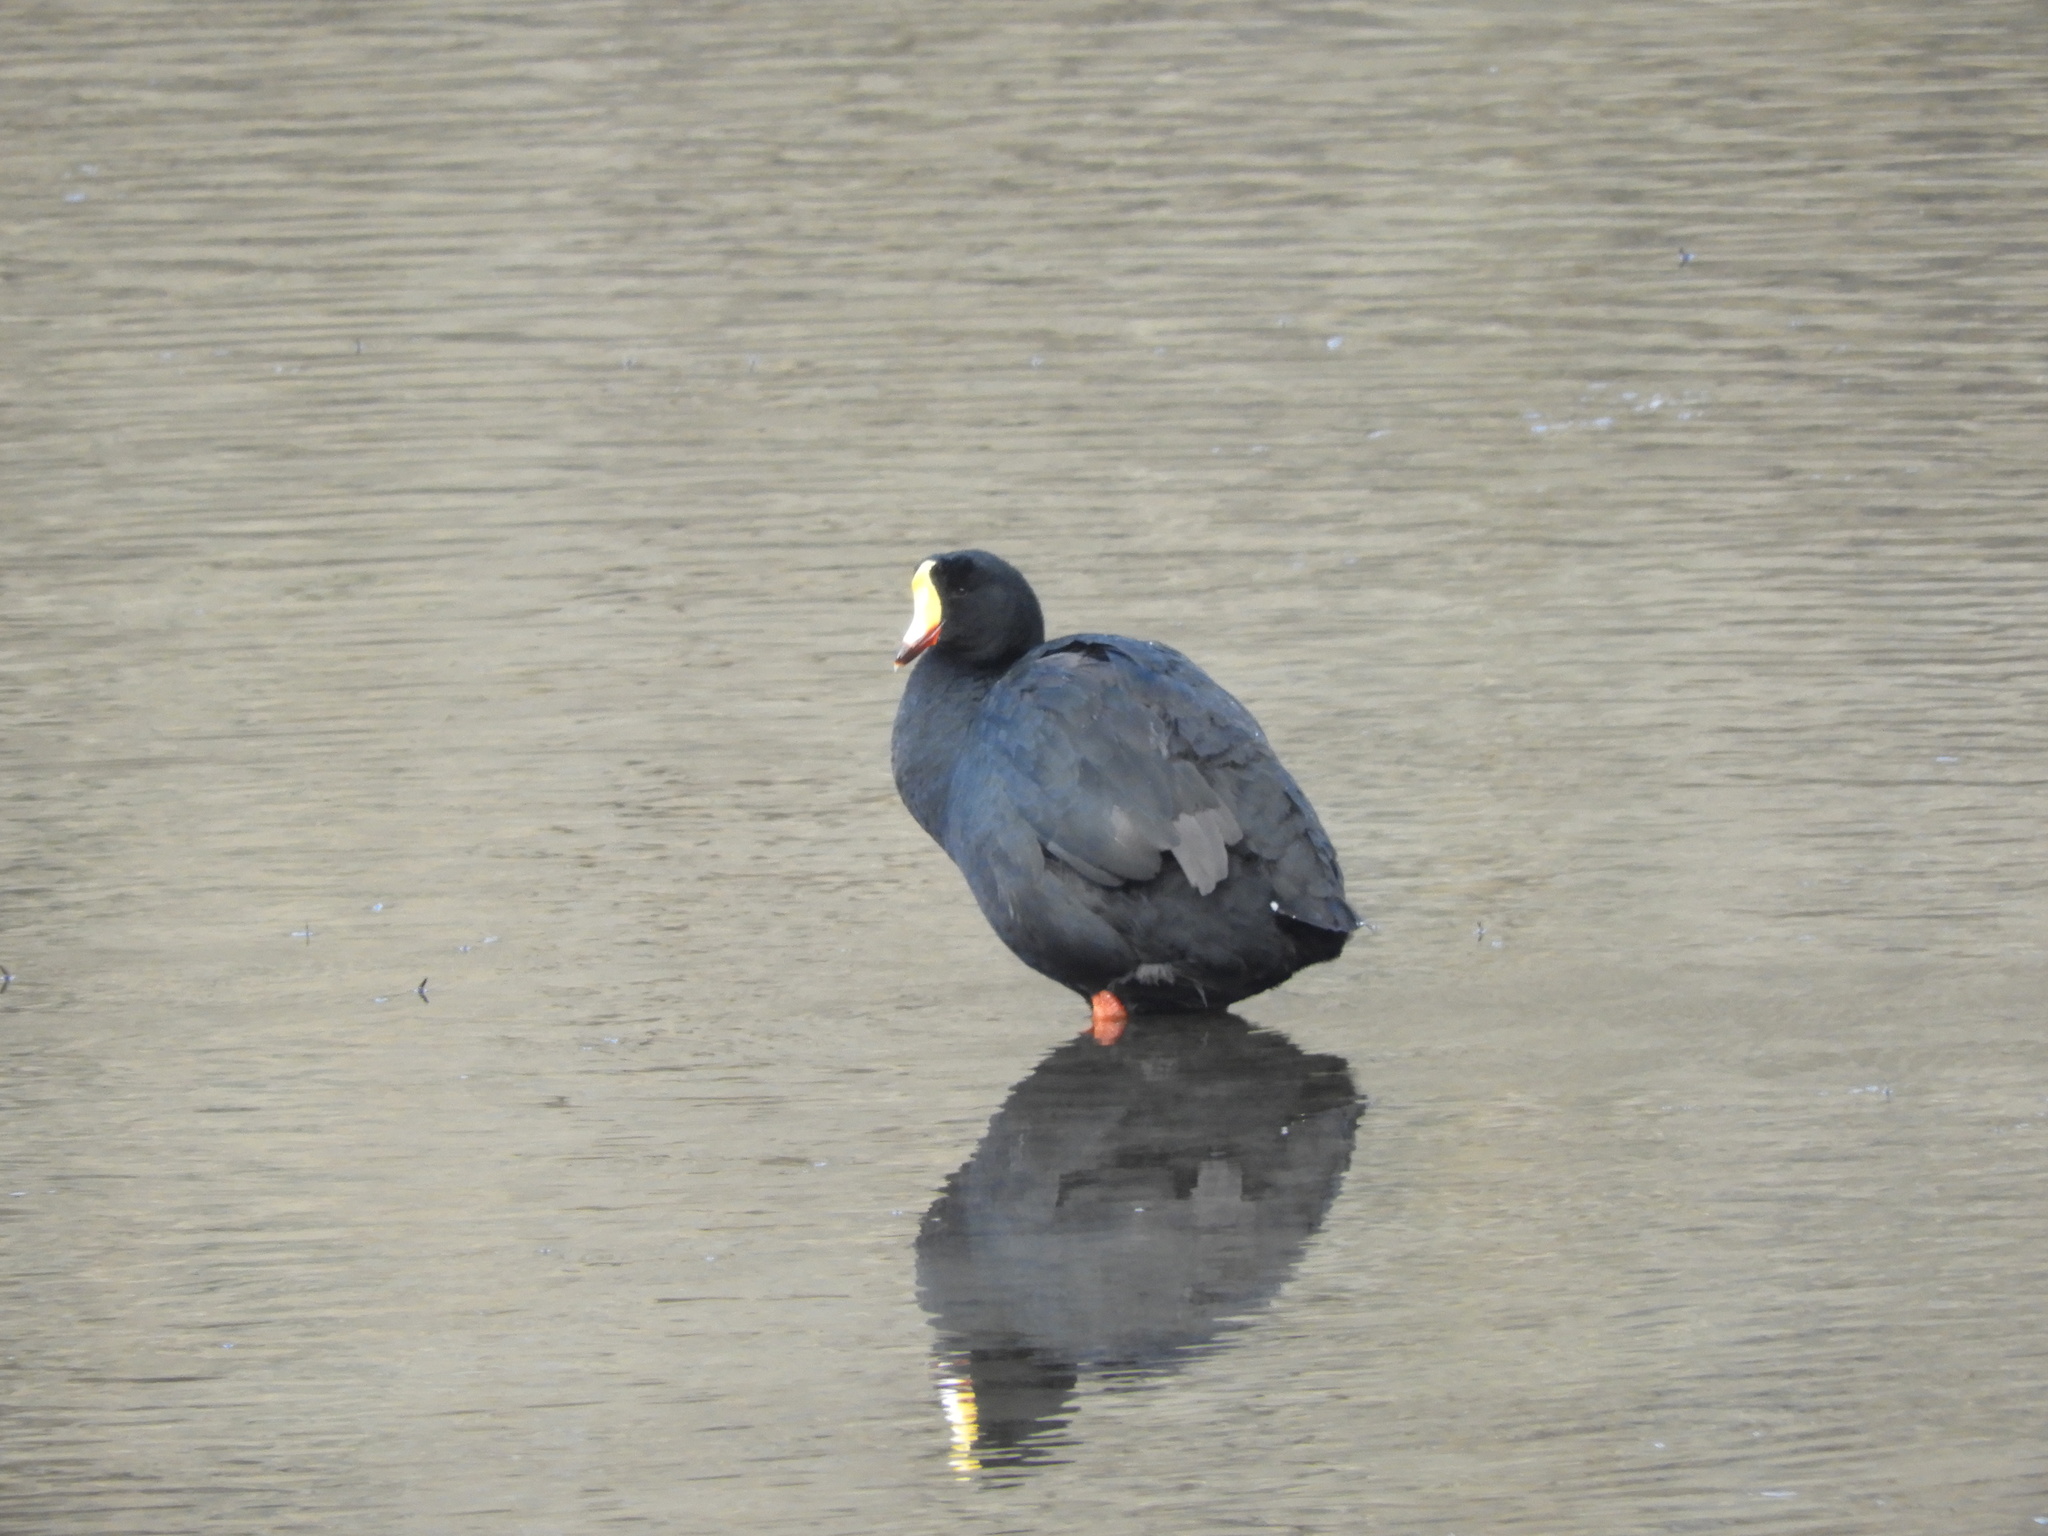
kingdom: Animalia
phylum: Chordata
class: Aves
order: Gruiformes
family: Rallidae
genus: Fulica
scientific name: Fulica gigantea
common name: Giant coot
